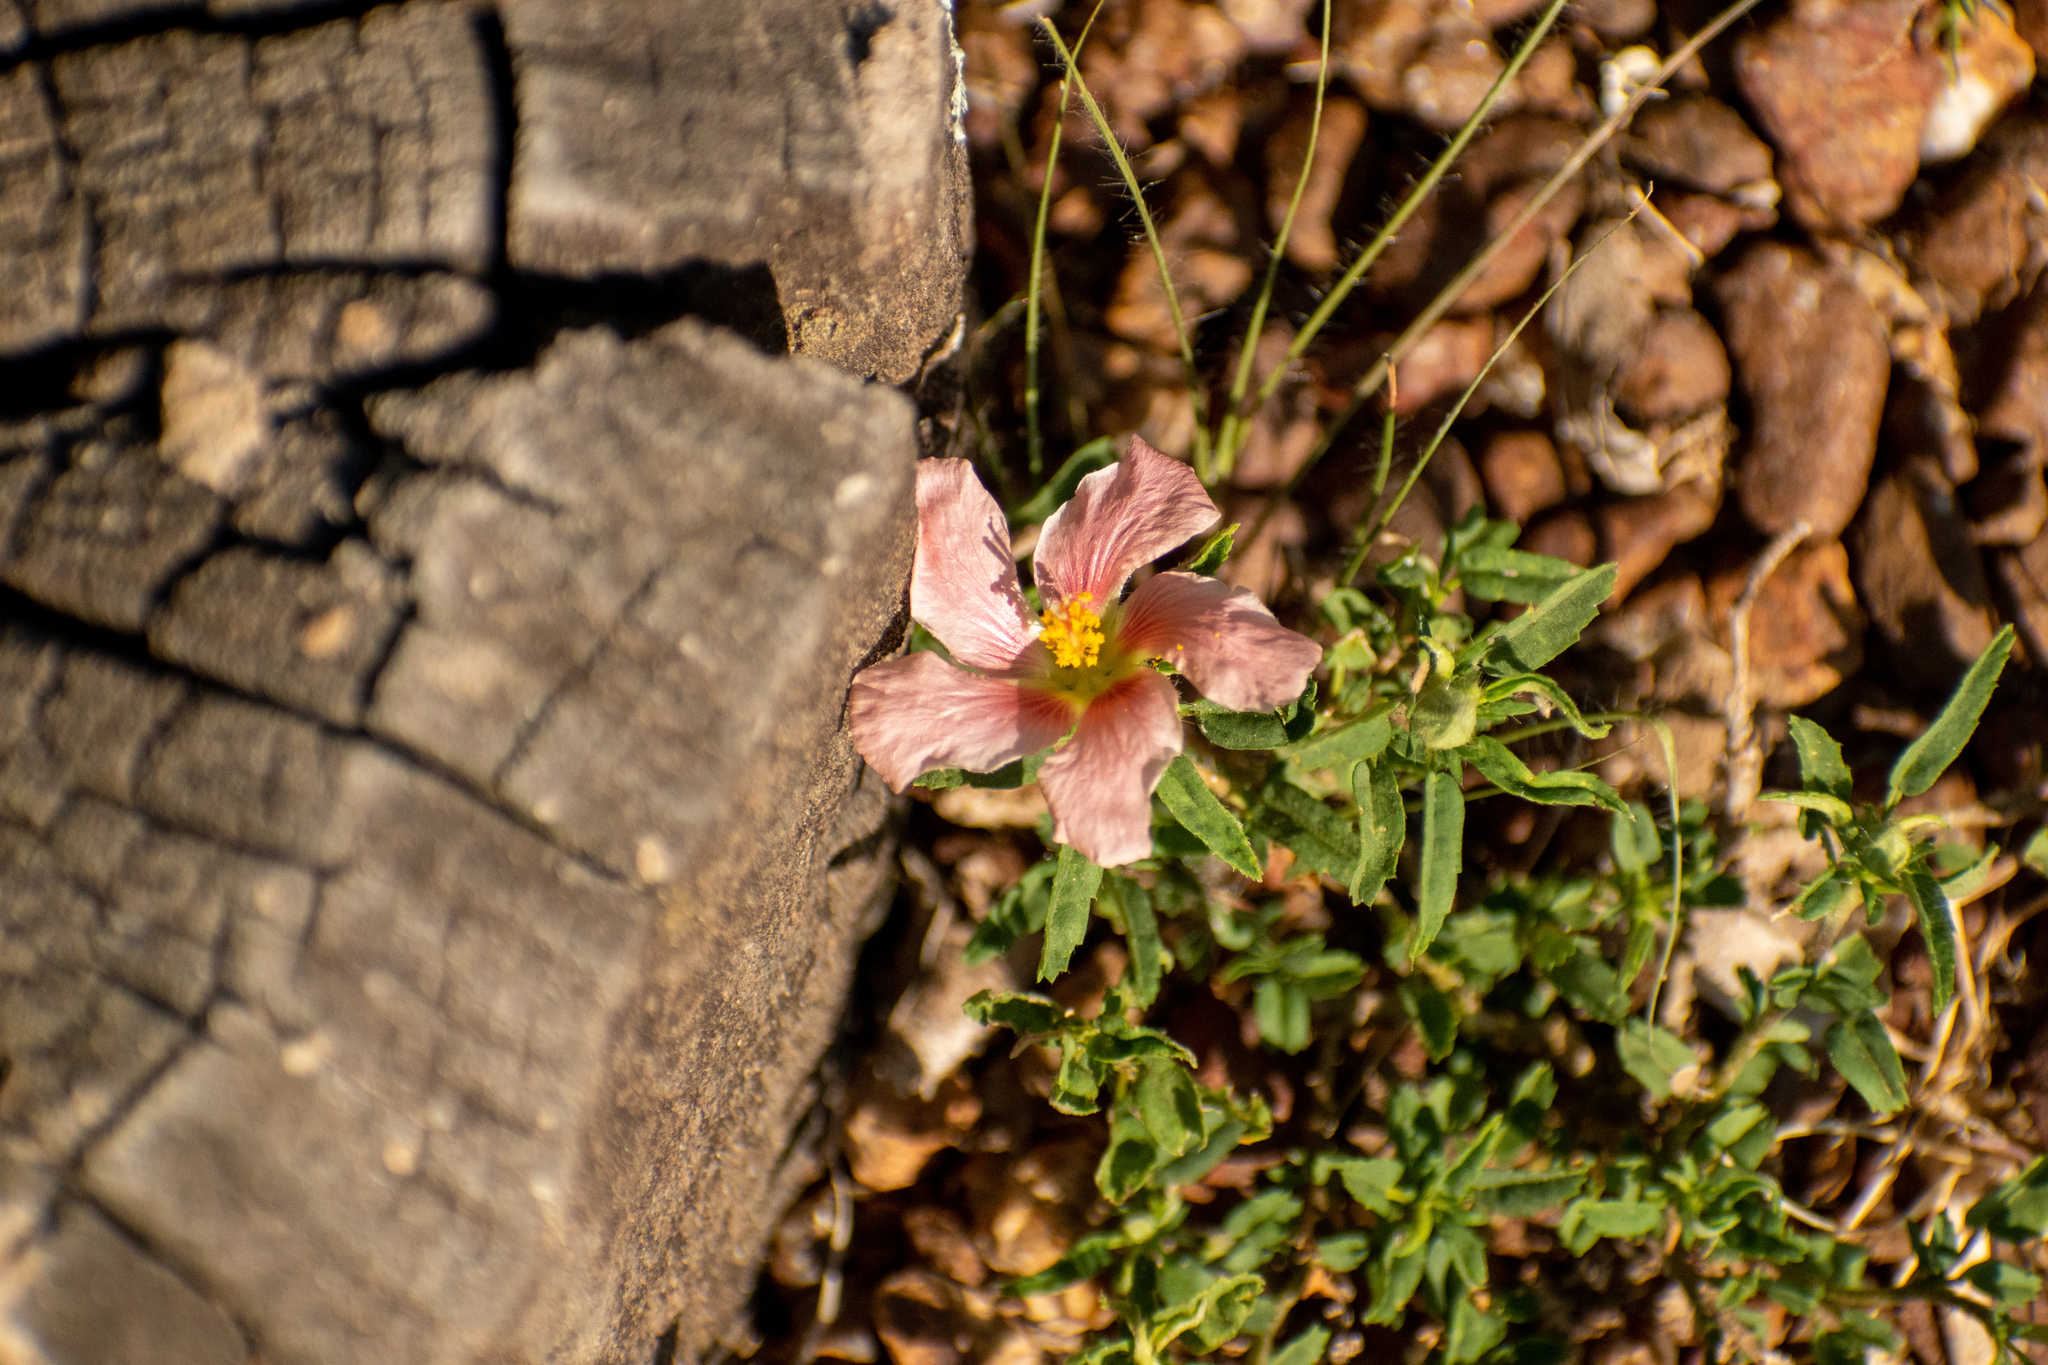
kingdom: Plantae
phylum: Tracheophyta
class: Magnoliopsida
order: Malvales
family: Malvaceae
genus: Sida
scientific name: Sida anomala
